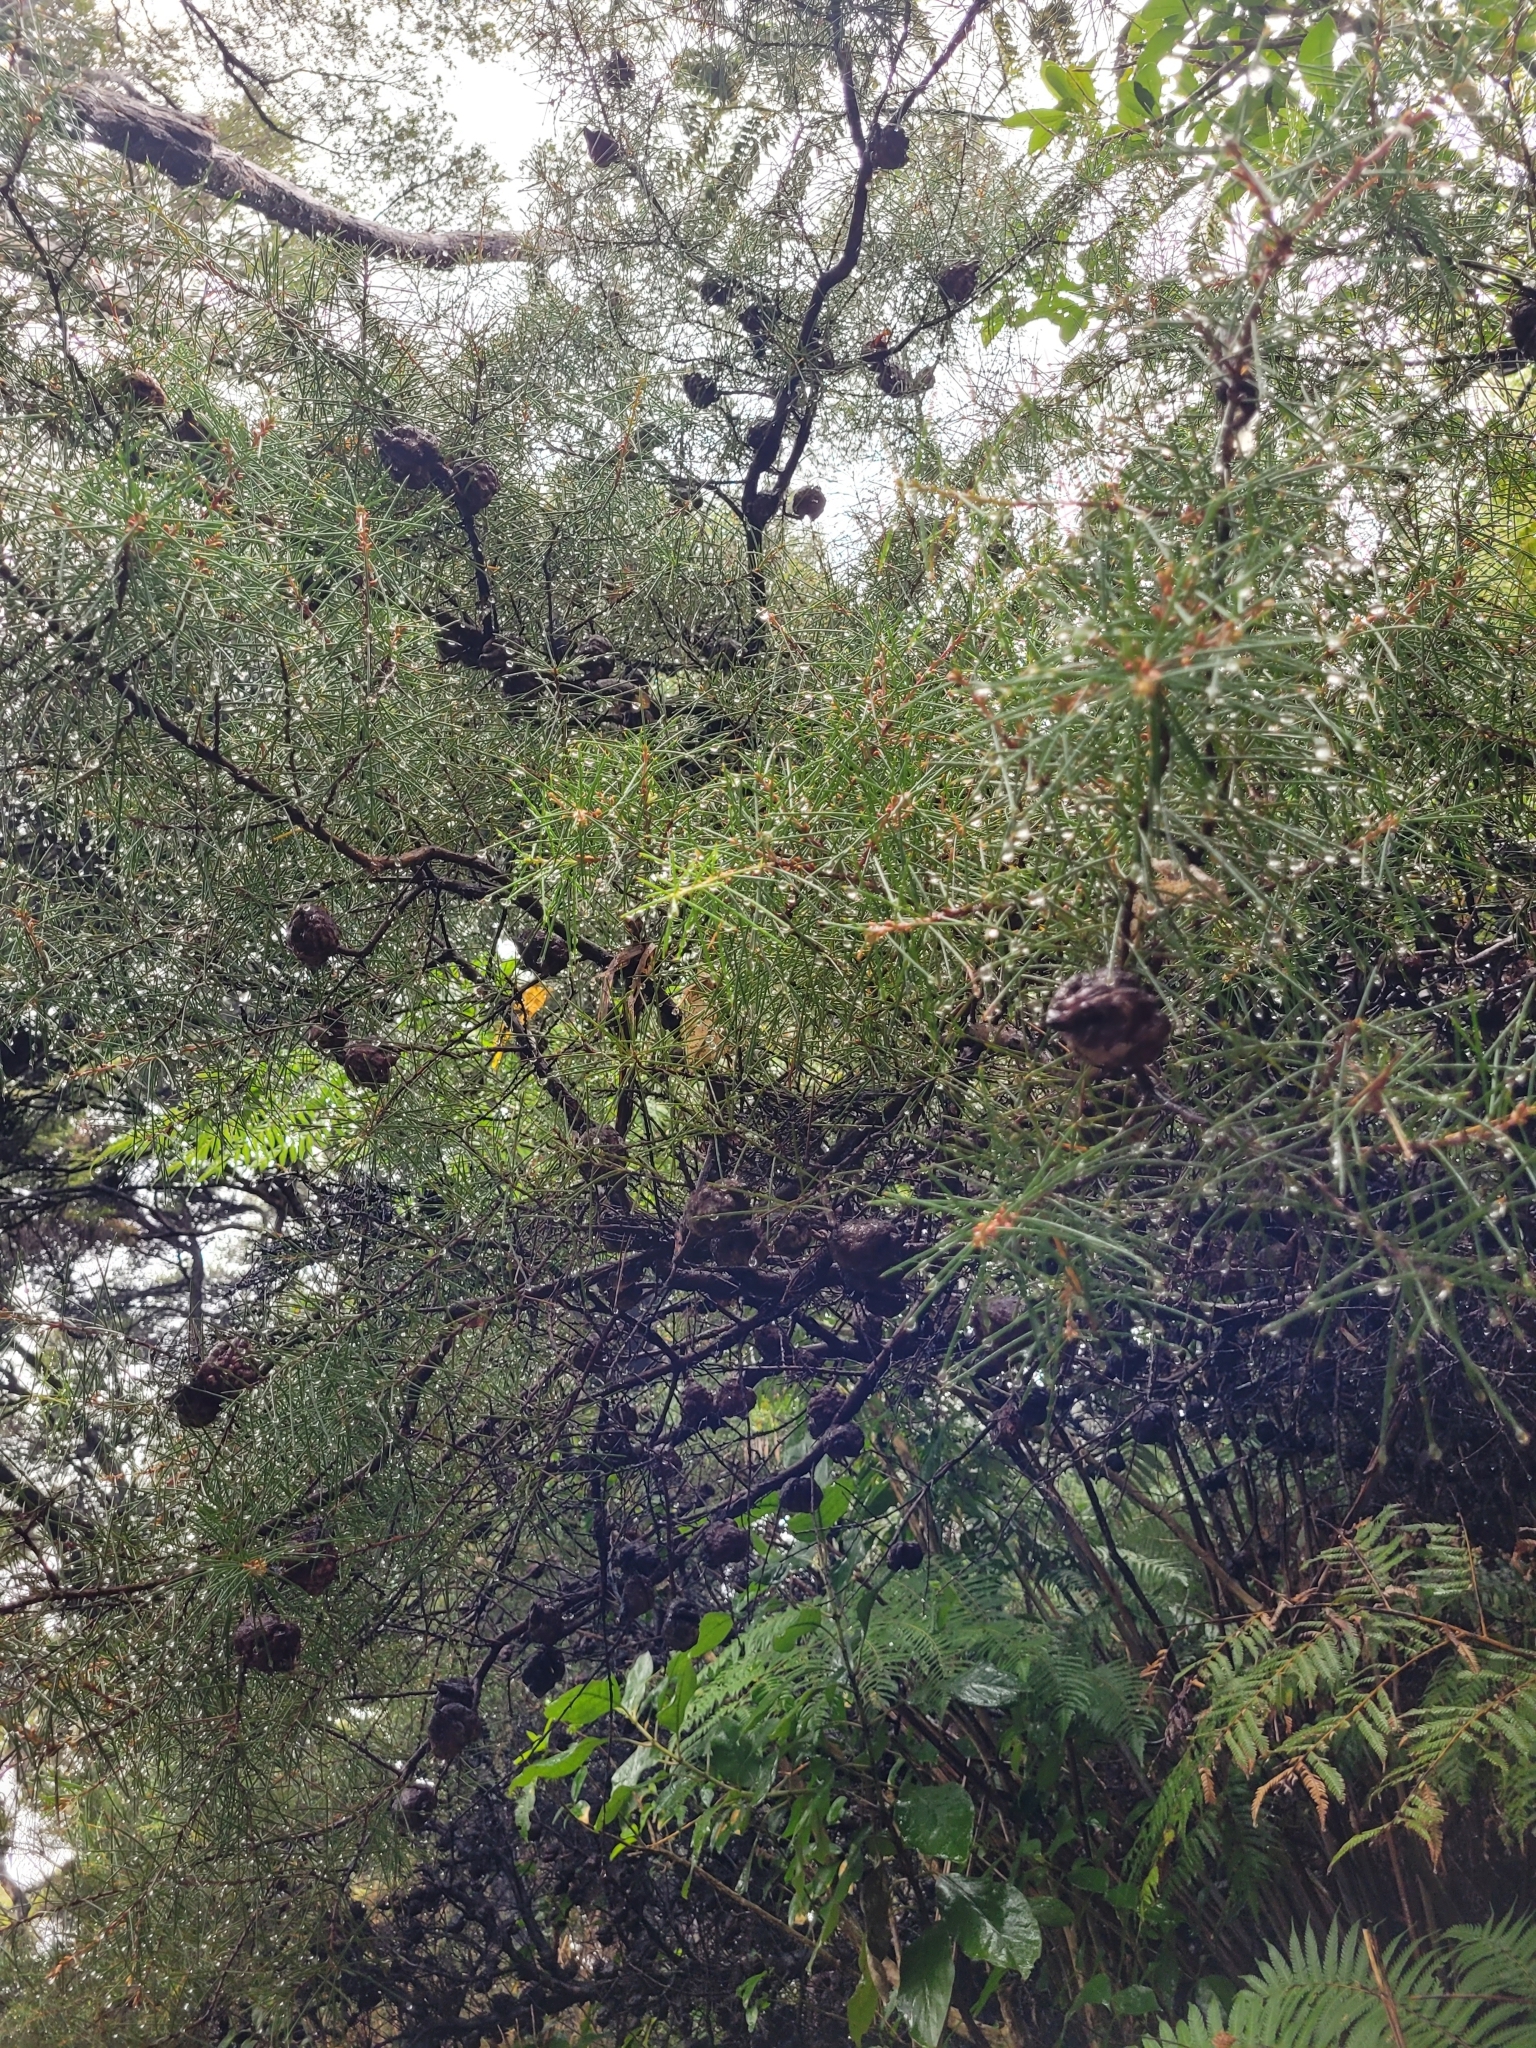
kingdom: Plantae
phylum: Tracheophyta
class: Magnoliopsida
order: Proteales
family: Proteaceae
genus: Hakea
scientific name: Hakea sericea
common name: Needle bush
